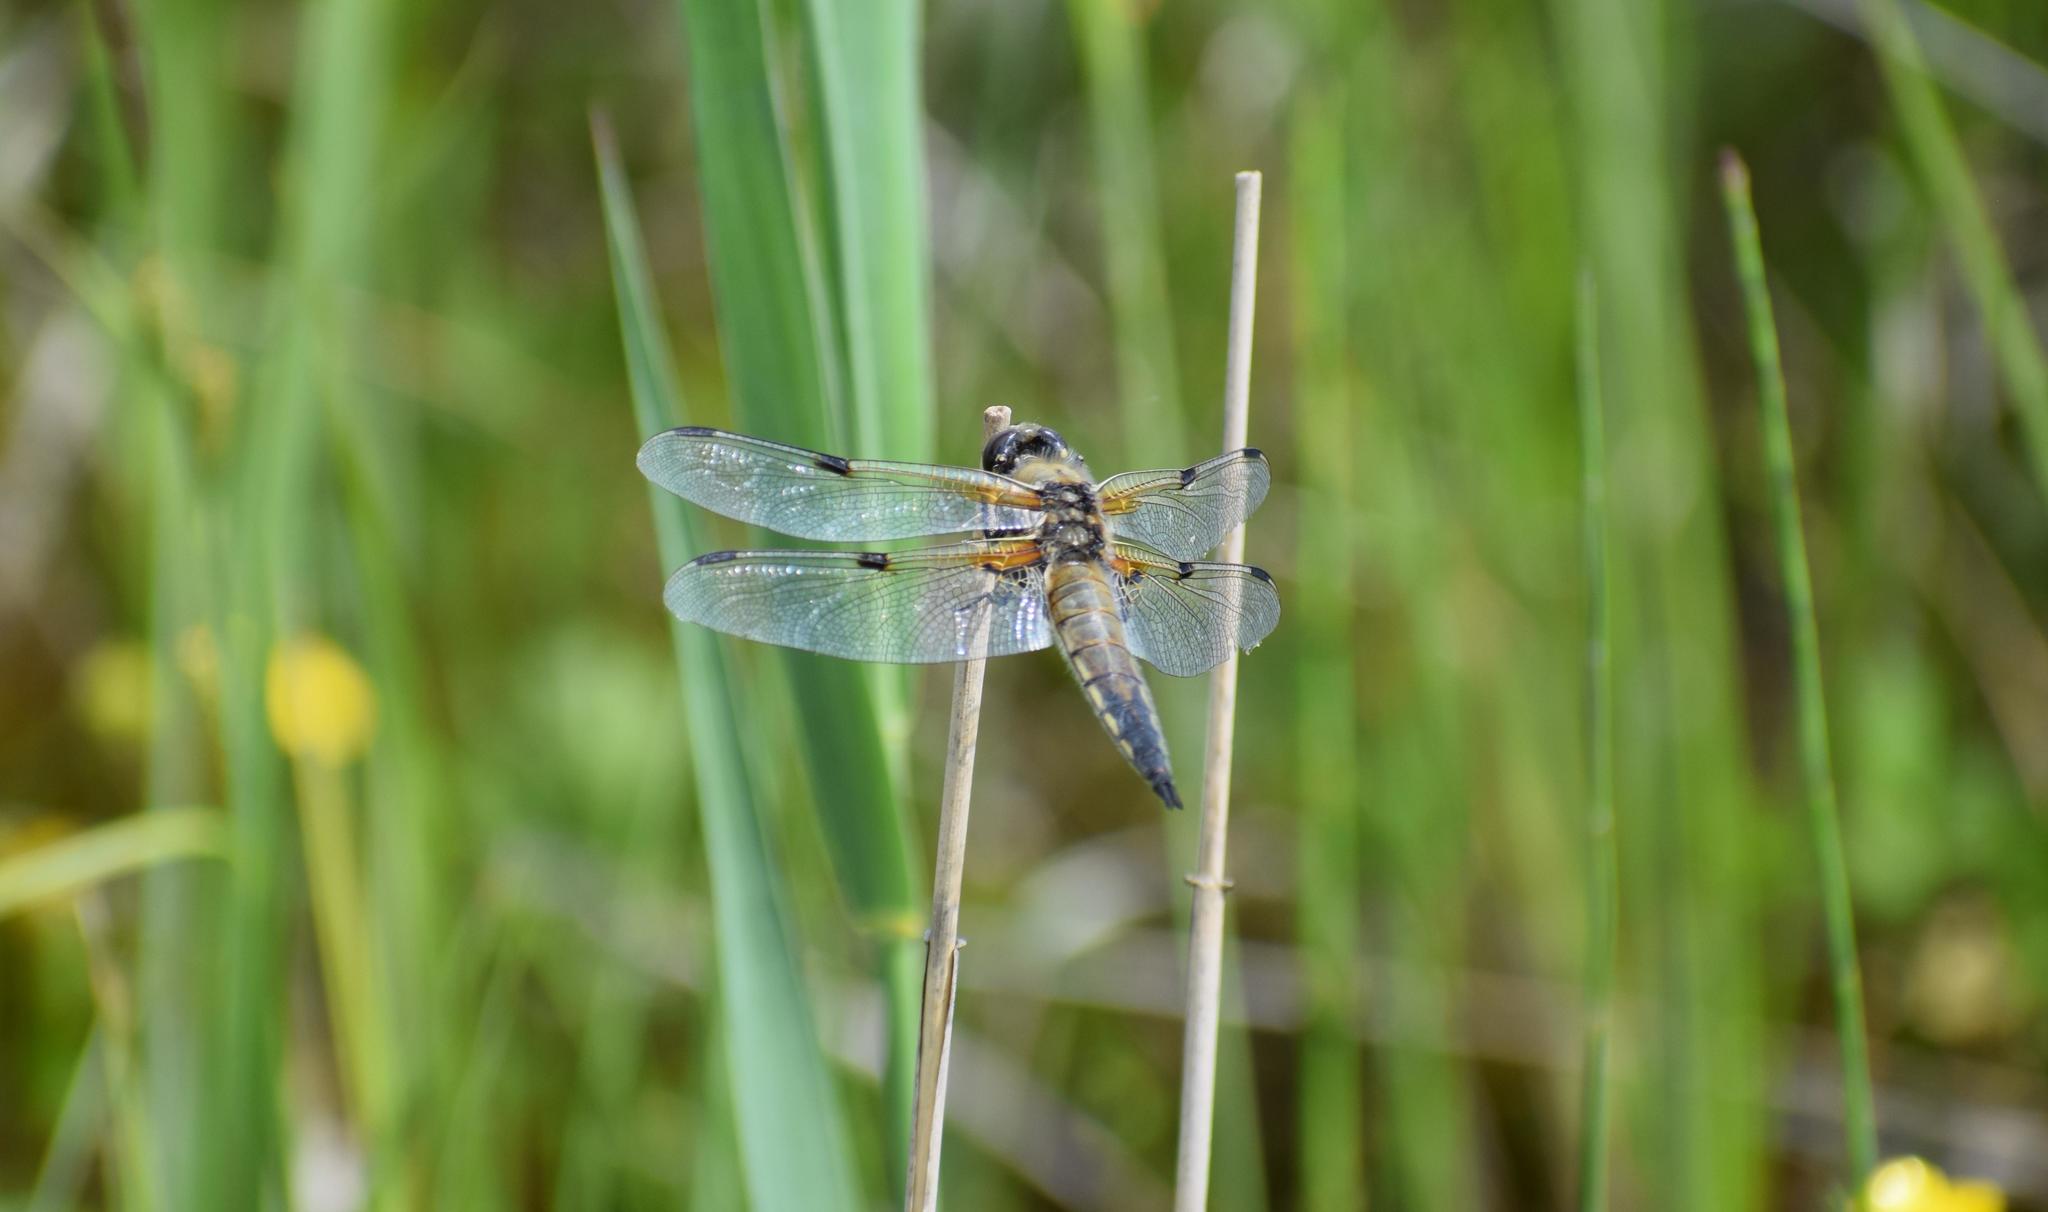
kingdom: Animalia
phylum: Arthropoda
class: Insecta
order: Odonata
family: Libellulidae
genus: Libellula
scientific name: Libellula quadrimaculata
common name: Four-spotted chaser
